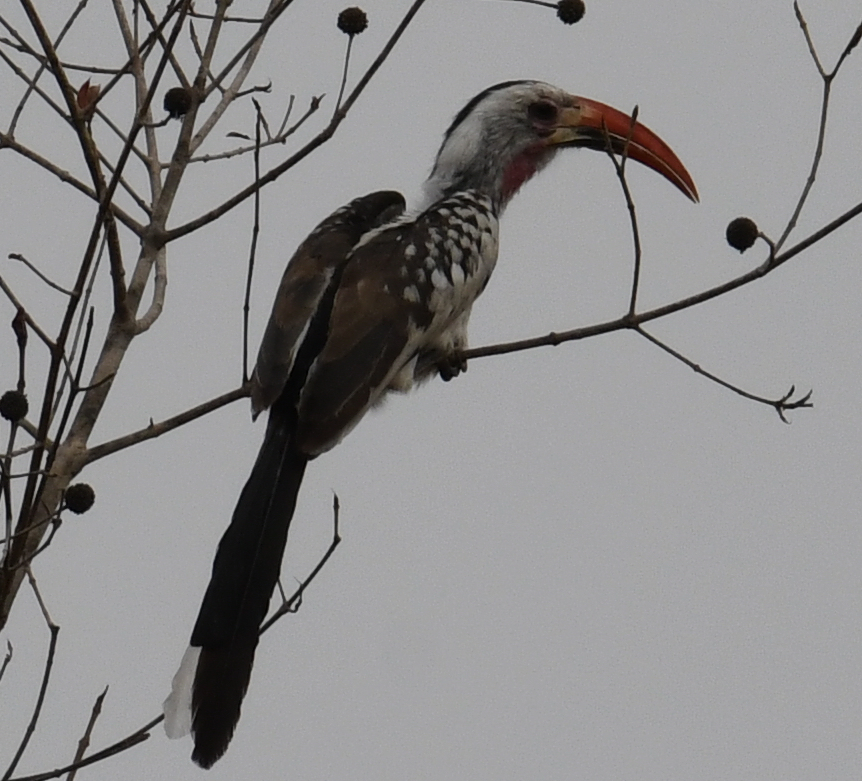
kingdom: Animalia
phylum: Chordata
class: Aves
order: Bucerotiformes
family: Bucerotidae
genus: Tockus
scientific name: Tockus erythrorhynchus
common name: Northern red-billed hornbill
